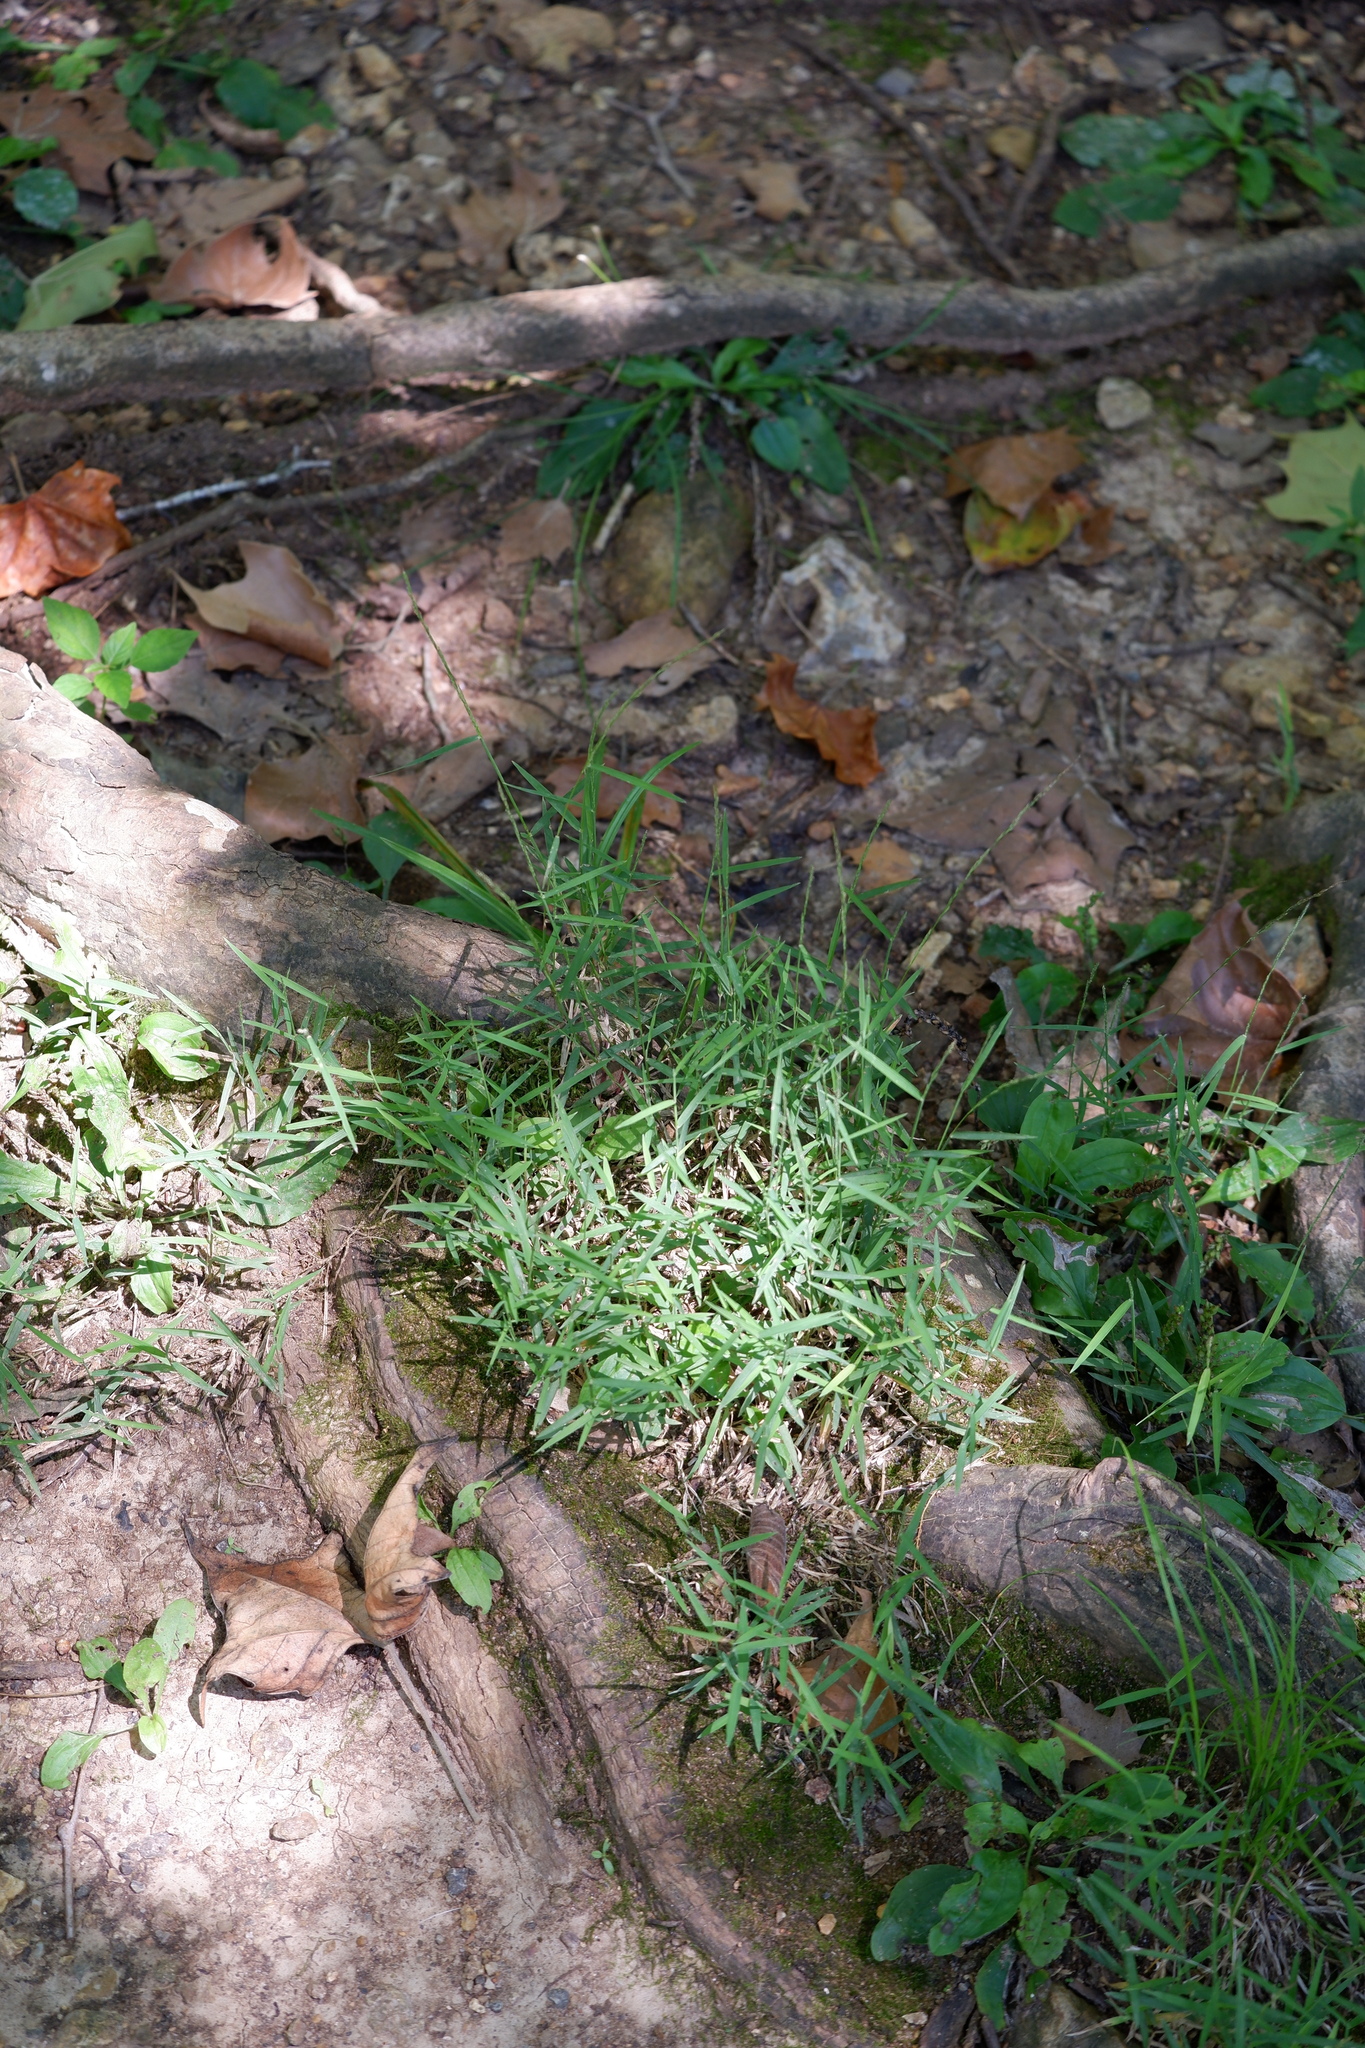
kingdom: Plantae
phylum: Tracheophyta
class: Liliopsida
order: Poales
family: Poaceae
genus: Muhlenbergia
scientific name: Muhlenbergia schreberi
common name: Nimblewill
